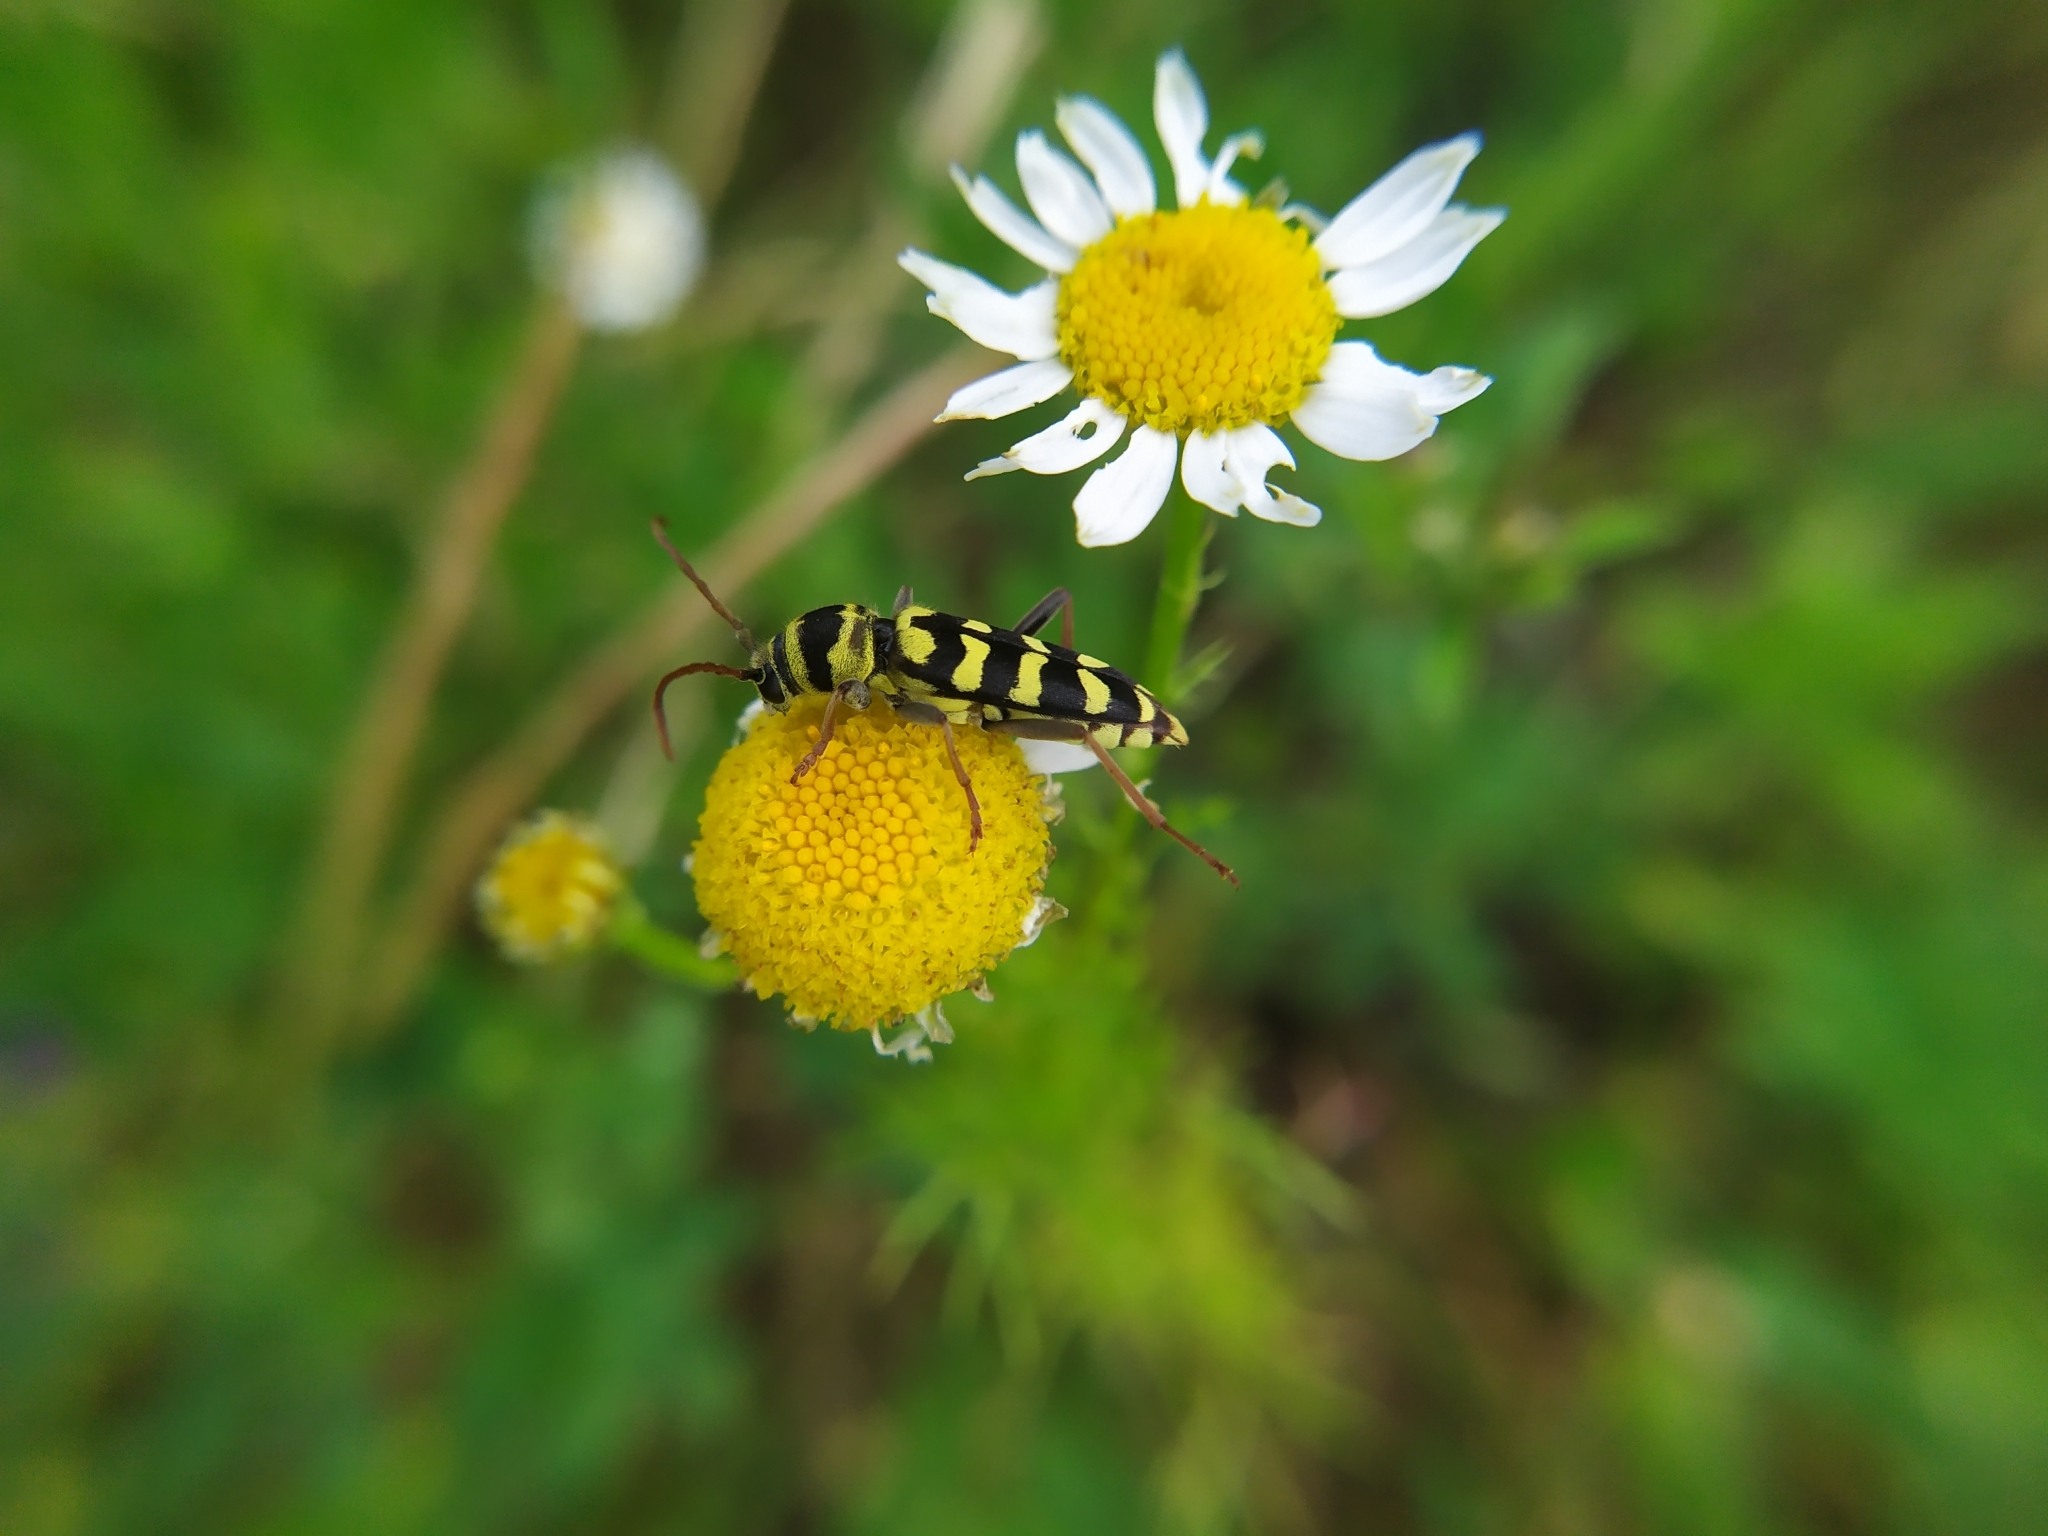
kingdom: Animalia
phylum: Arthropoda
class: Insecta
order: Coleoptera
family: Cerambycidae
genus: Plagionotus
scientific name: Plagionotus floralis
